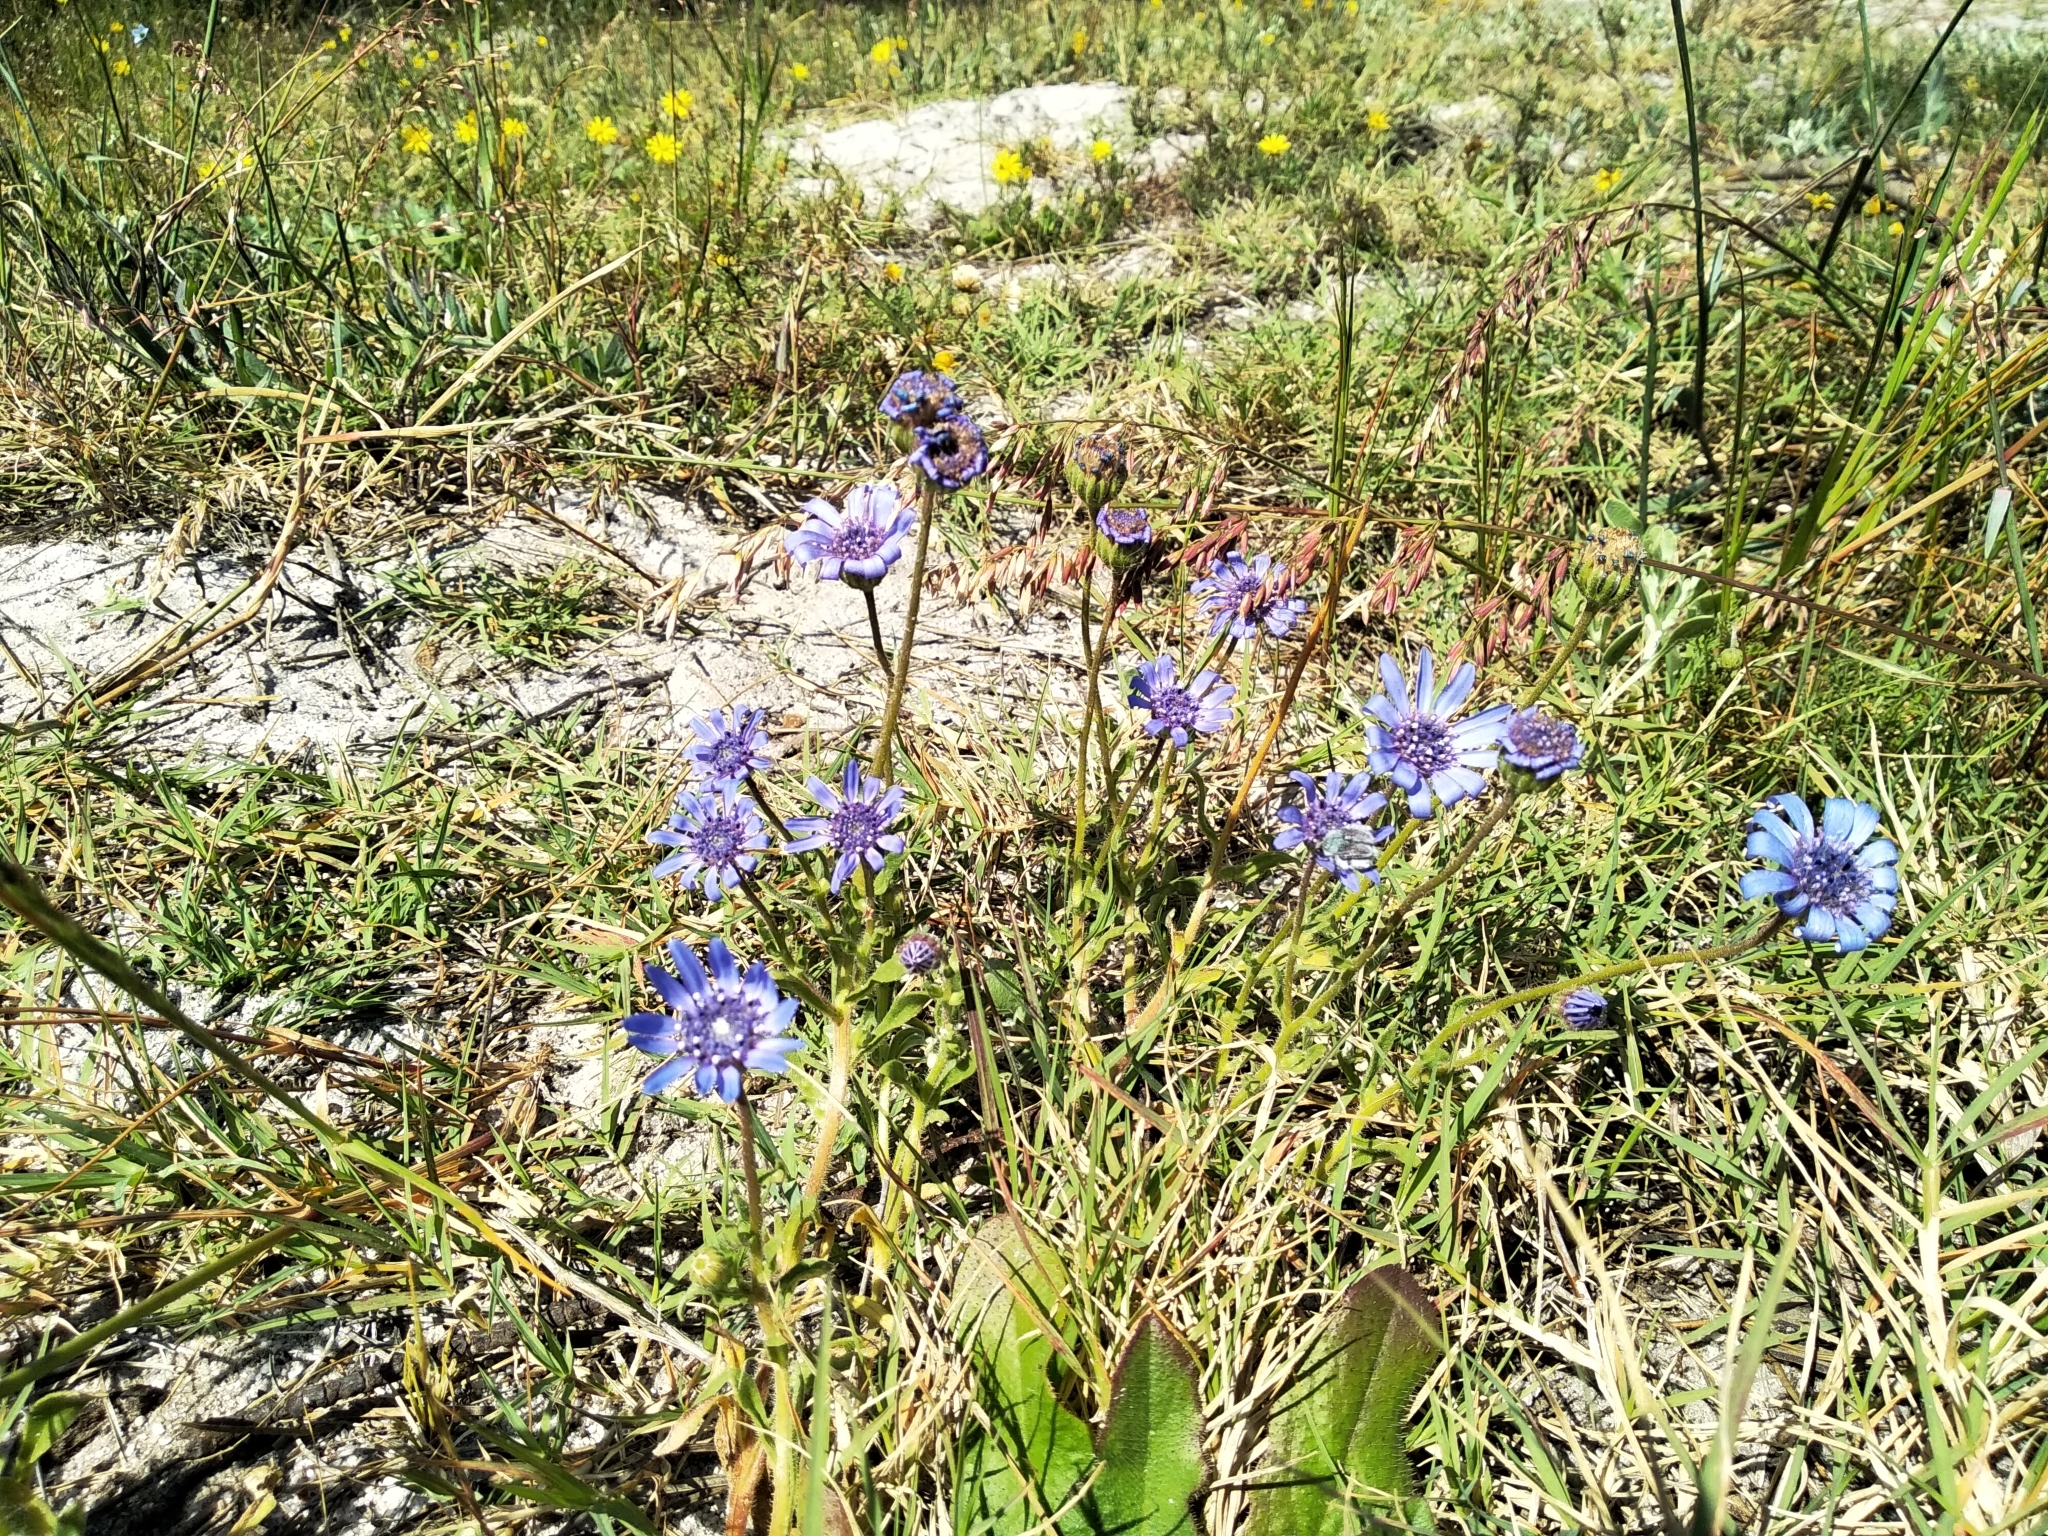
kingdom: Plantae
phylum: Tracheophyta
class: Magnoliopsida
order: Asterales
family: Asteraceae
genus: Felicia
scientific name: Felicia heterophylla
